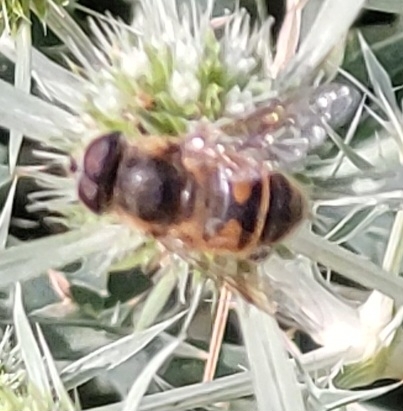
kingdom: Animalia
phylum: Arthropoda
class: Insecta
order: Diptera
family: Syrphidae
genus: Eristalis
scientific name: Eristalis tenax
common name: Drone fly
